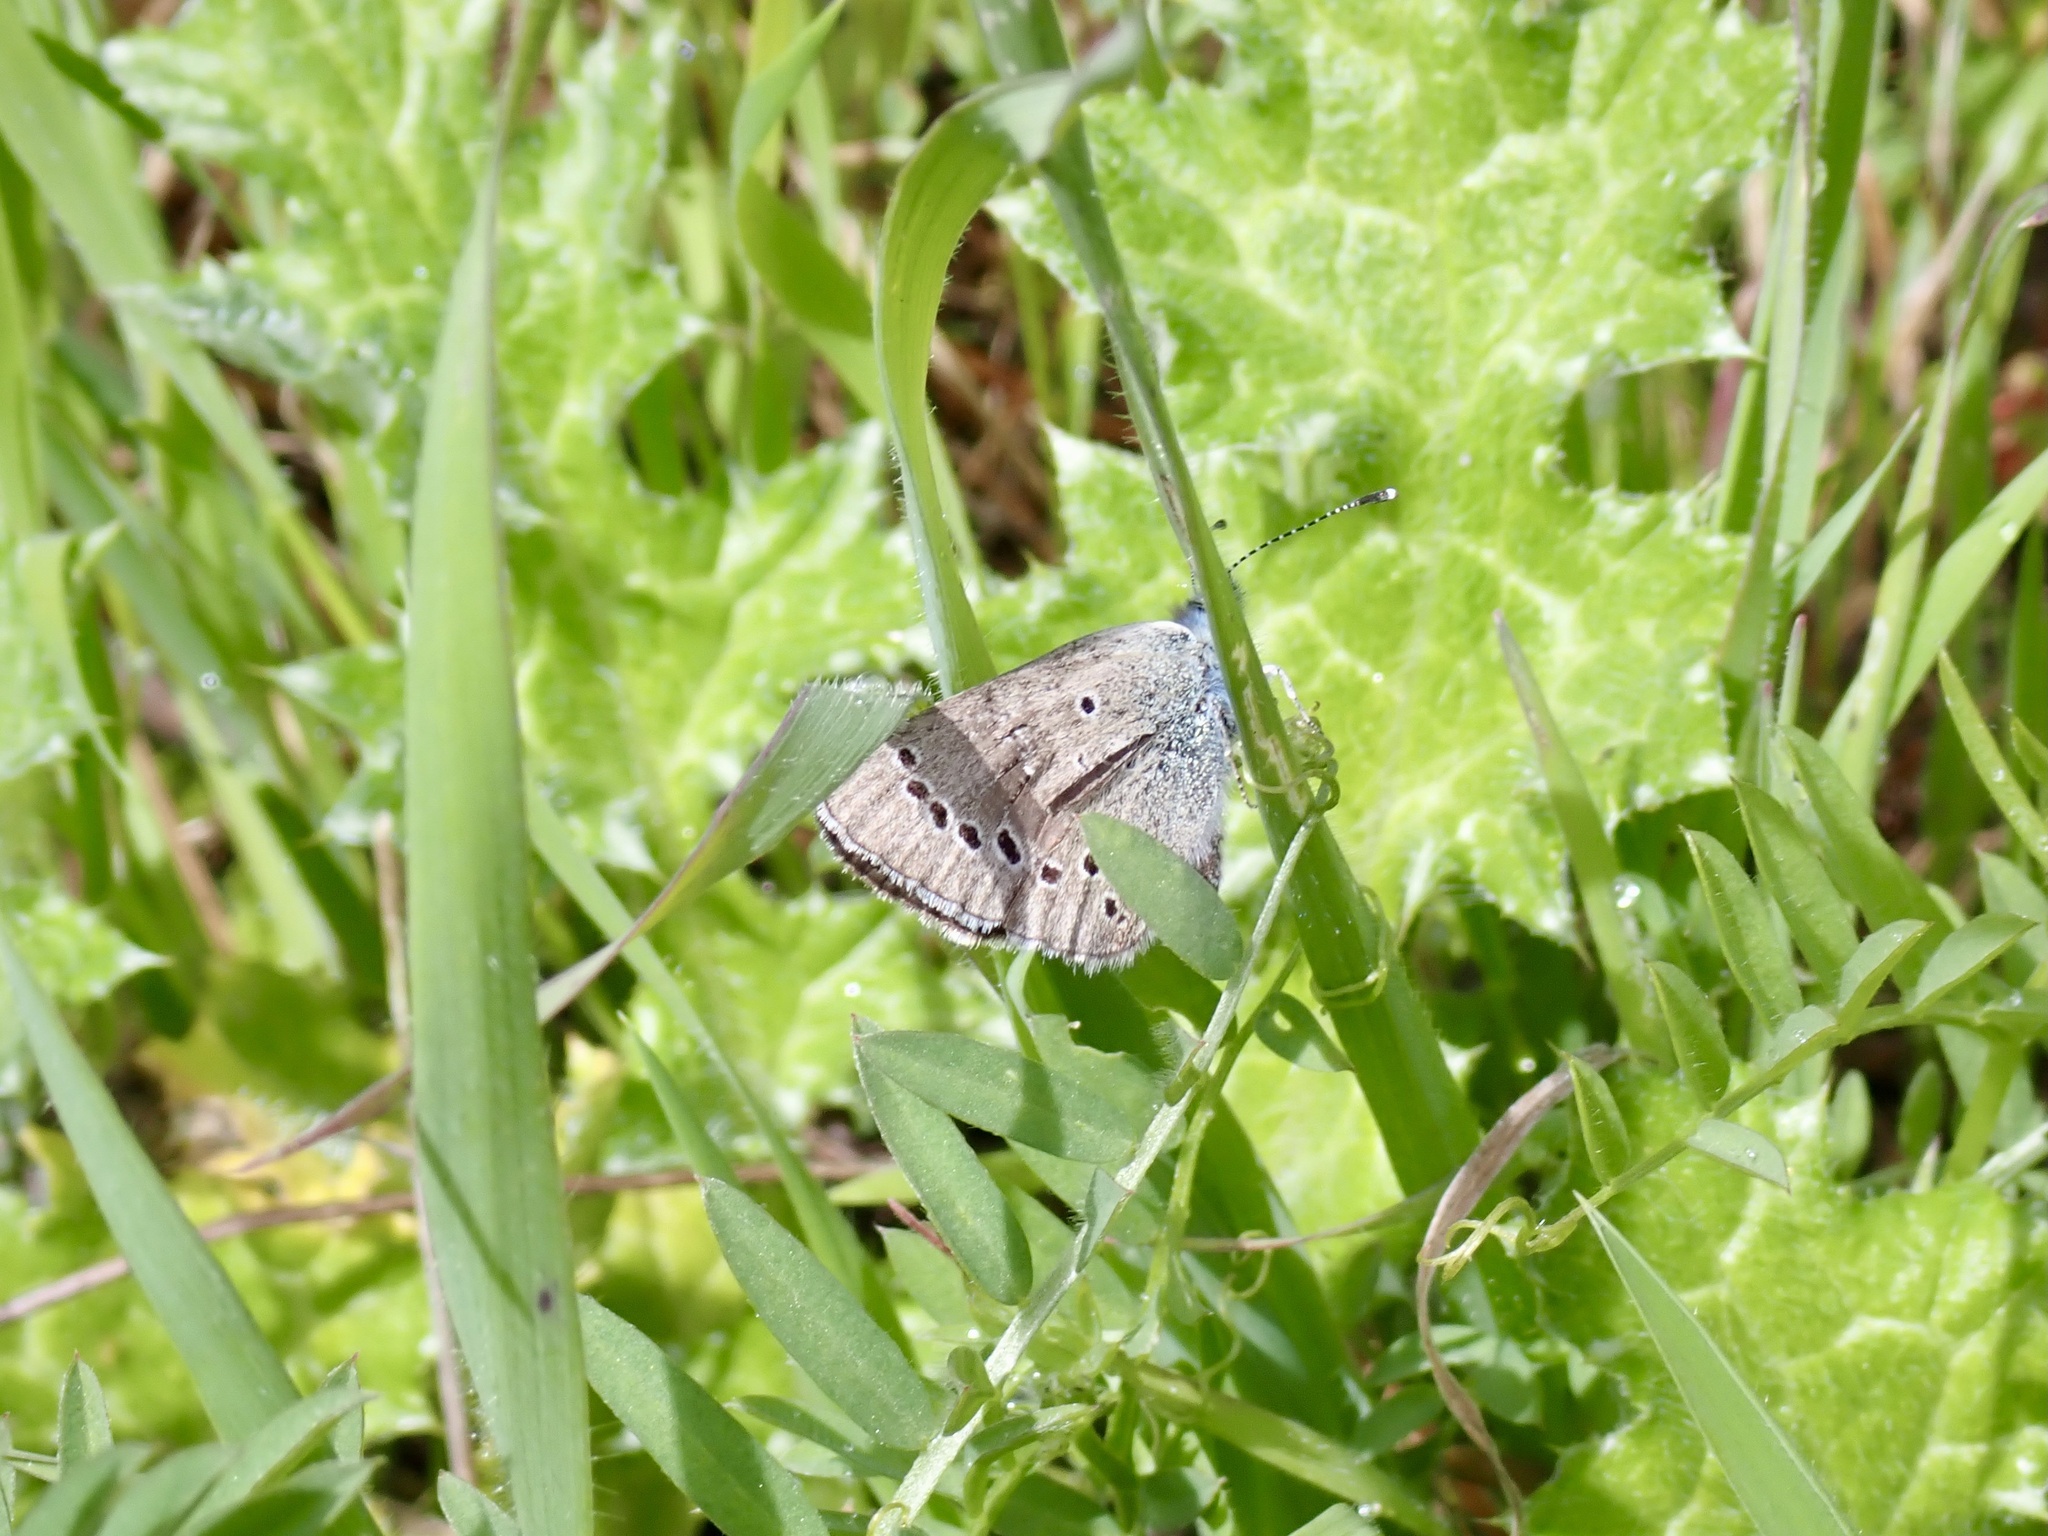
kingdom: Animalia
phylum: Arthropoda
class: Insecta
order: Lepidoptera
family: Lycaenidae
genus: Glaucopsyche
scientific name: Glaucopsyche lygdamus
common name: Silvery blue
